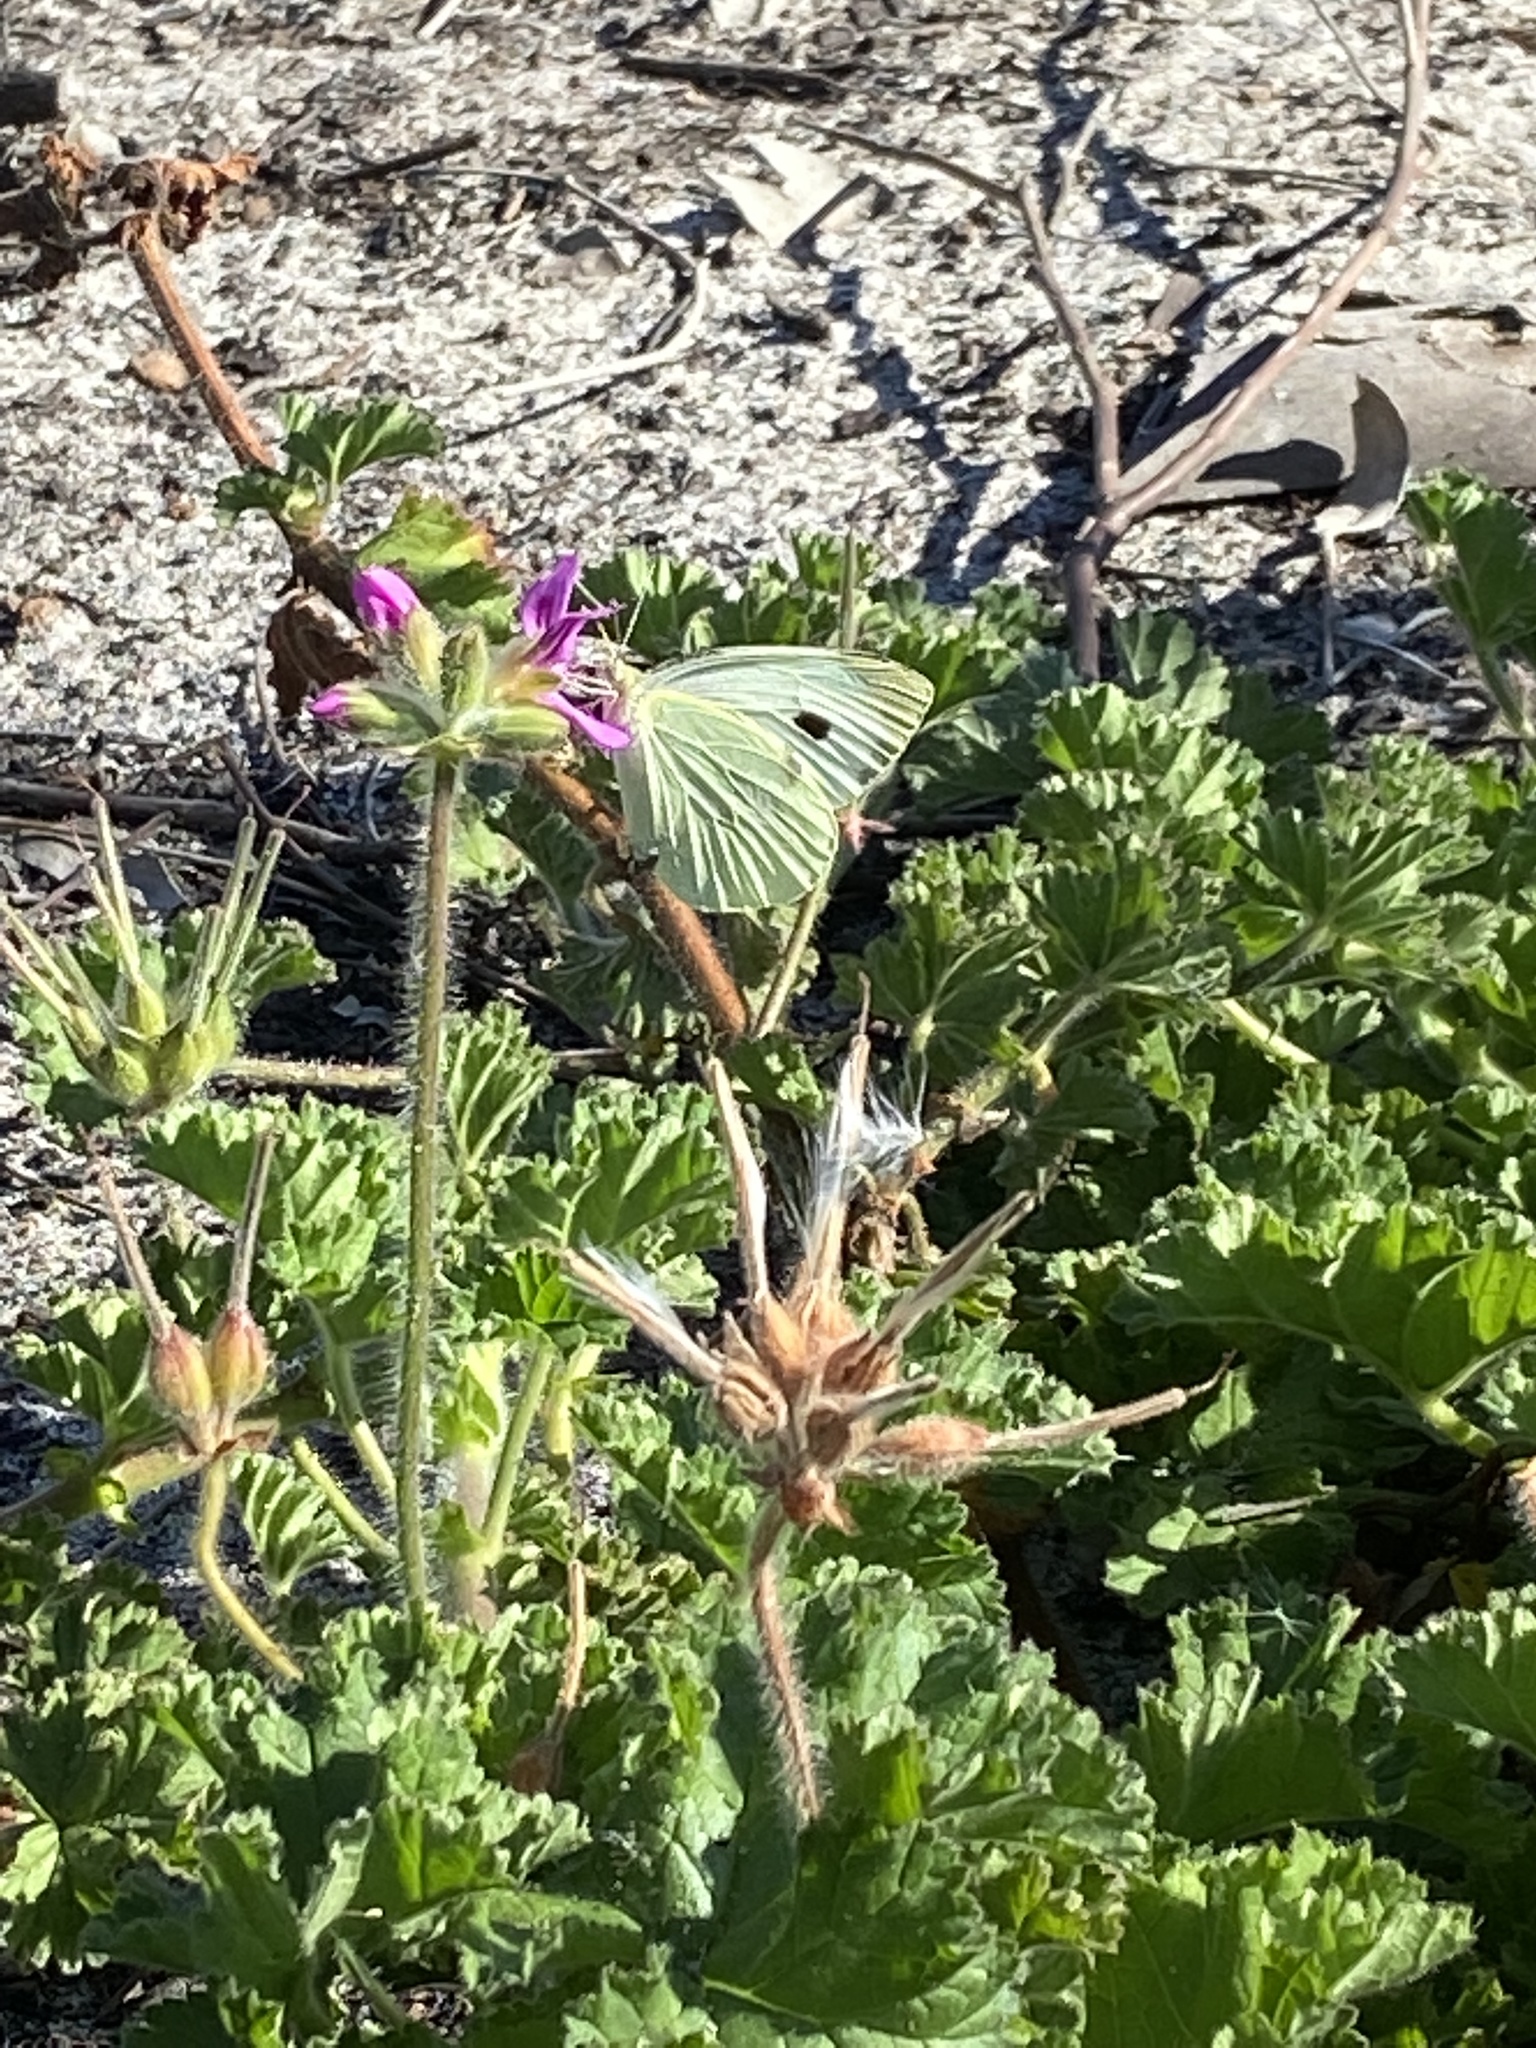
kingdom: Animalia
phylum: Arthropoda
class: Insecta
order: Lepidoptera
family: Pieridae
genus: Pieris
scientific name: Pieris brassicae
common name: Large white
